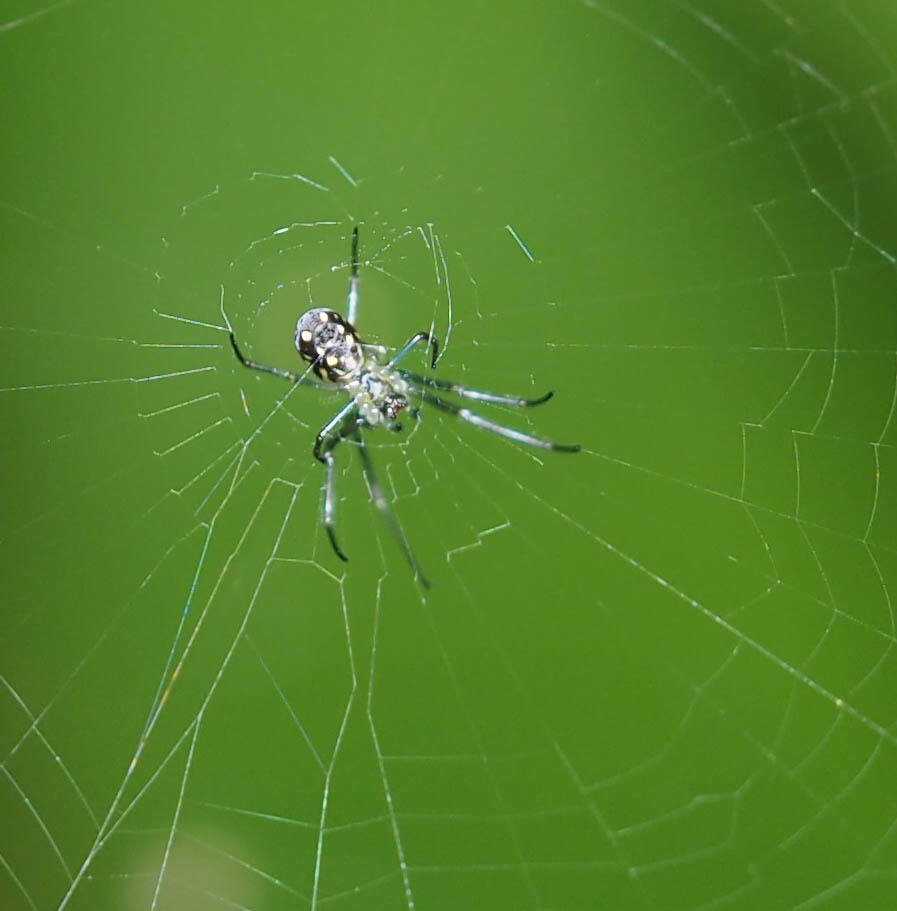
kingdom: Animalia
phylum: Arthropoda
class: Arachnida
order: Araneae
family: Tetragnathidae
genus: Leucauge
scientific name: Leucauge argyra
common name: Longjawed orb weavers
